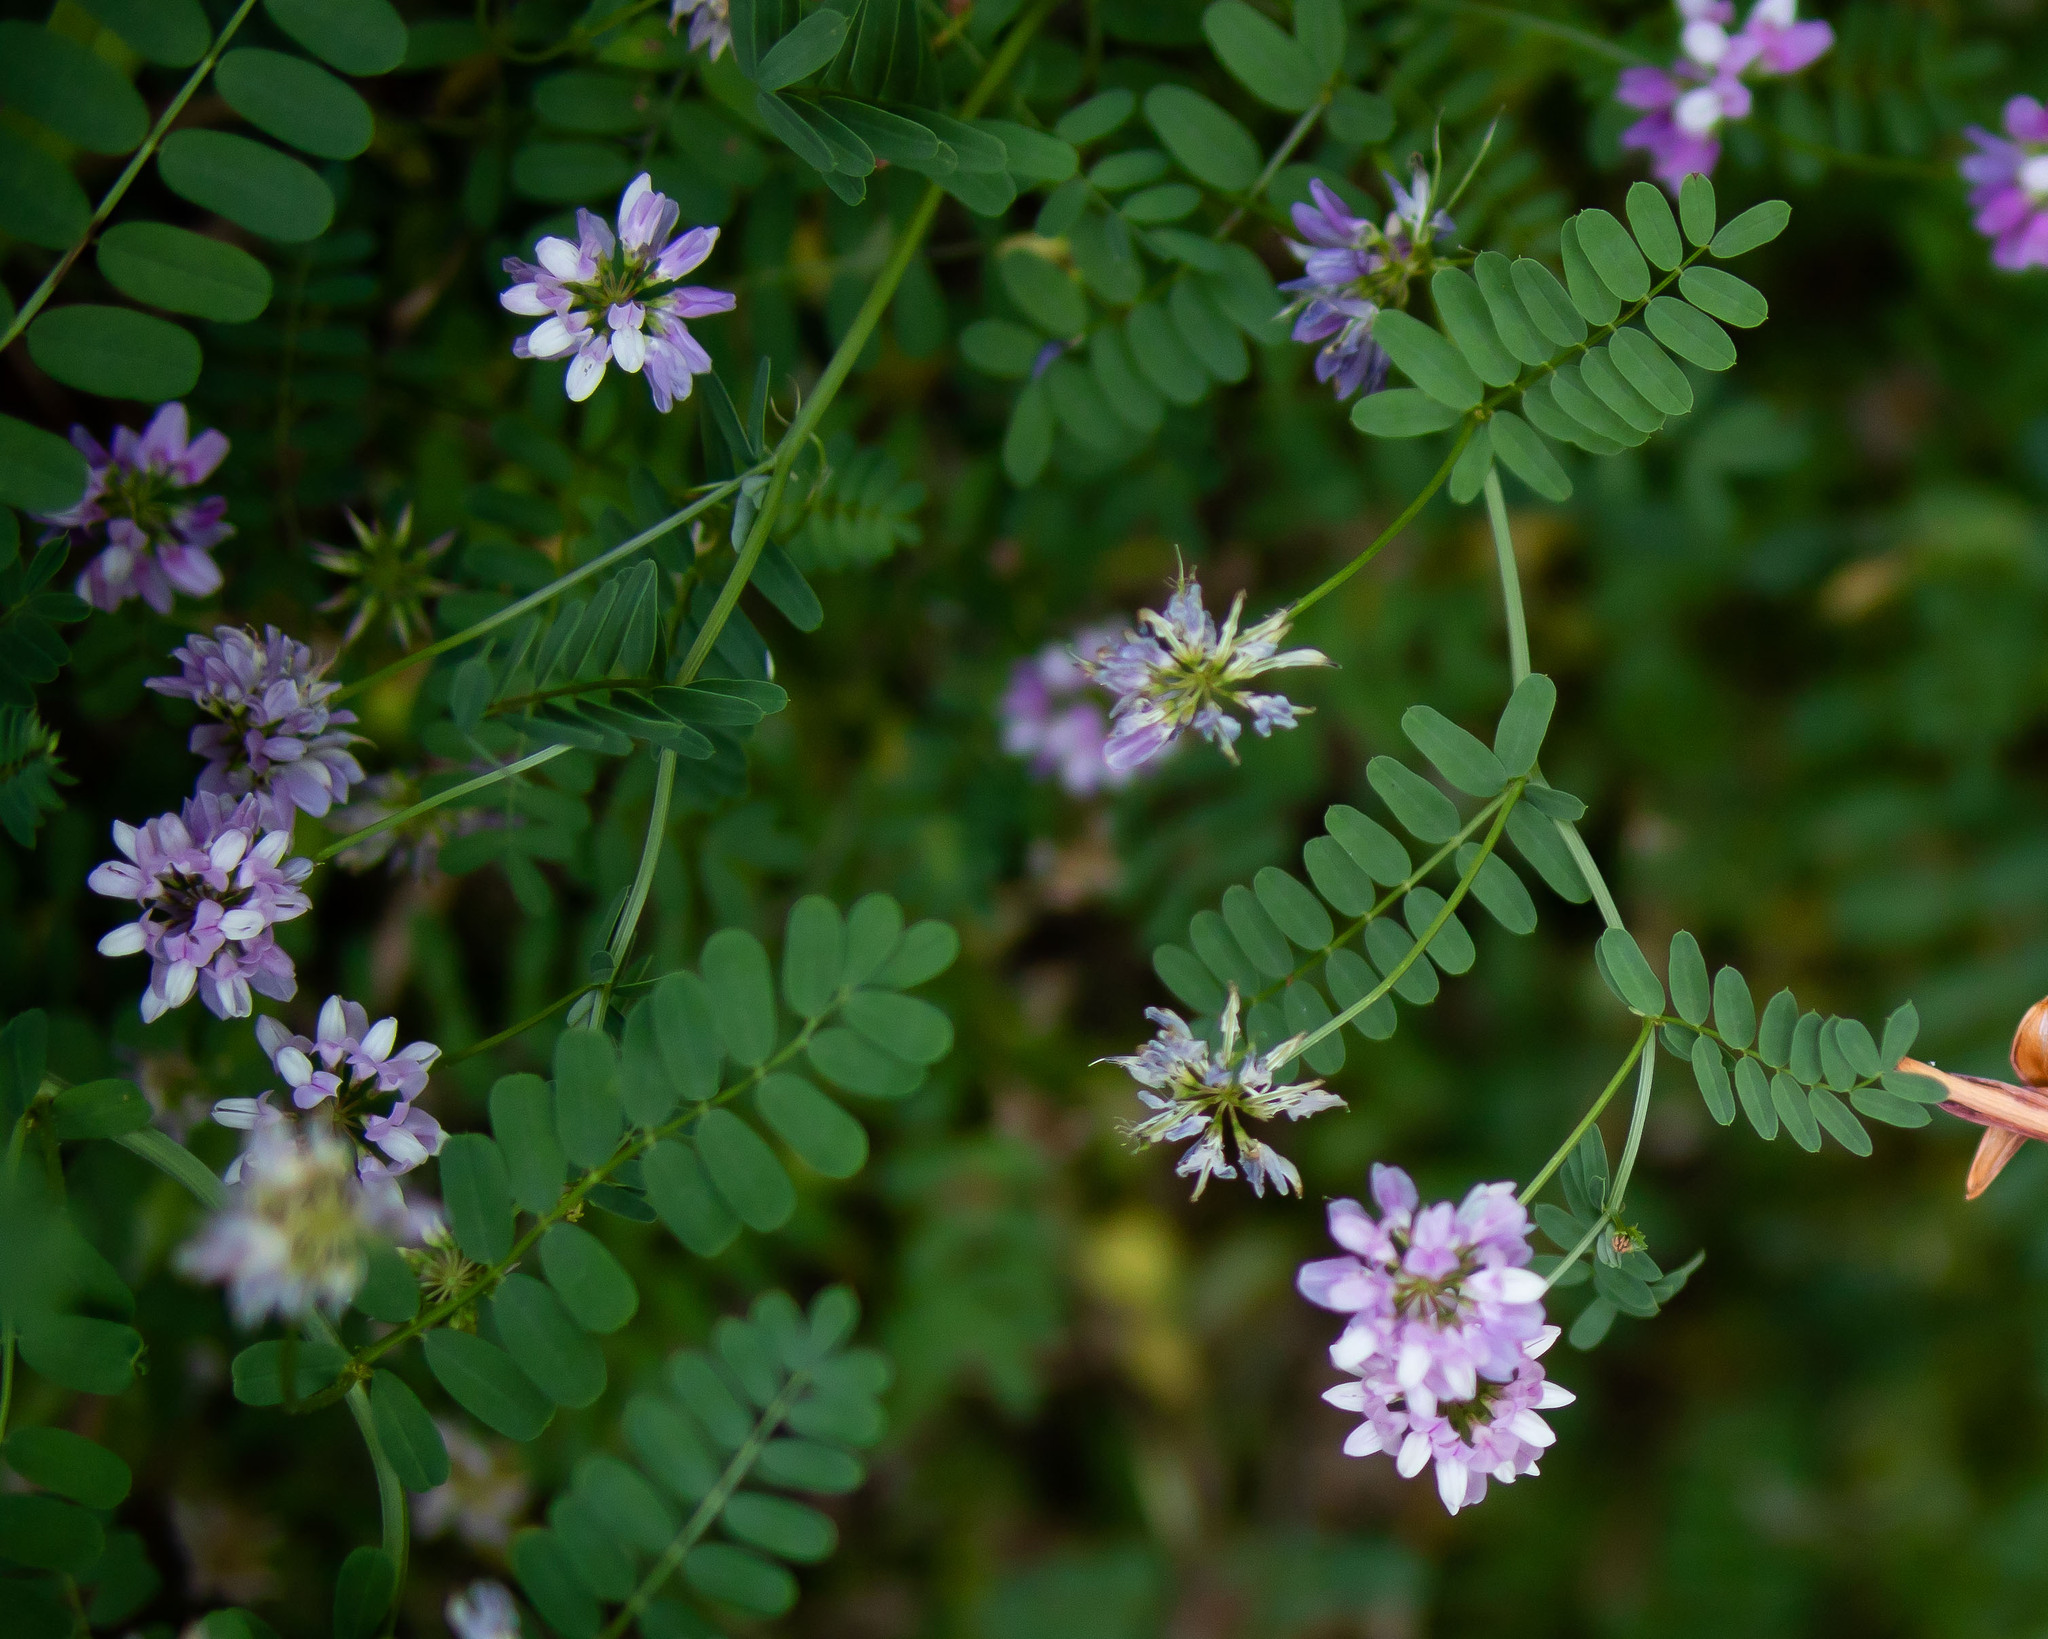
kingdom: Plantae
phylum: Tracheophyta
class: Magnoliopsida
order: Fabales
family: Fabaceae
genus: Coronilla
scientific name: Coronilla varia
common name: Crownvetch
